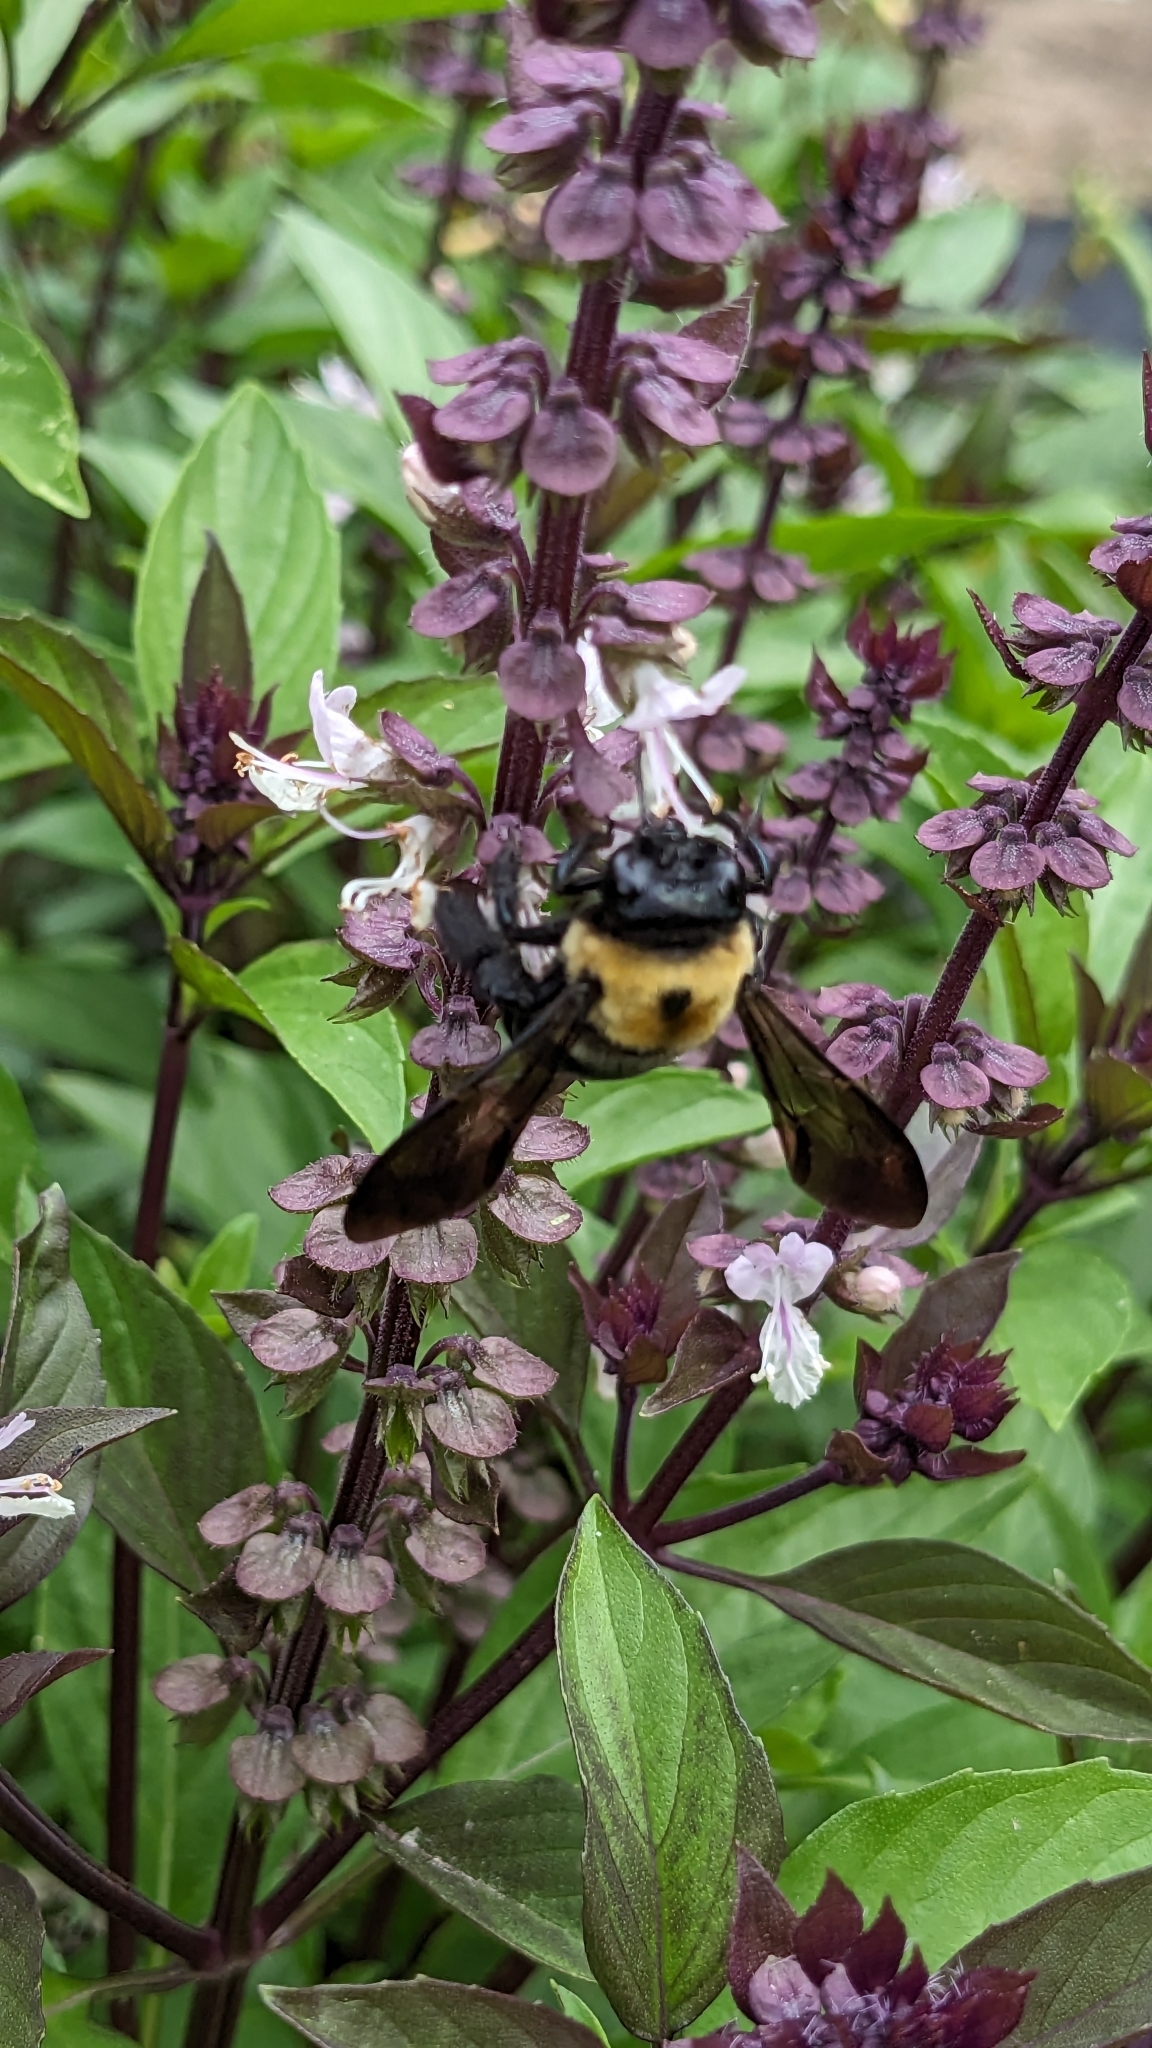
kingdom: Animalia
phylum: Arthropoda
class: Insecta
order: Hymenoptera
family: Apidae
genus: Xylocopa
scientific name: Xylocopa virginica
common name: Carpenter bee
